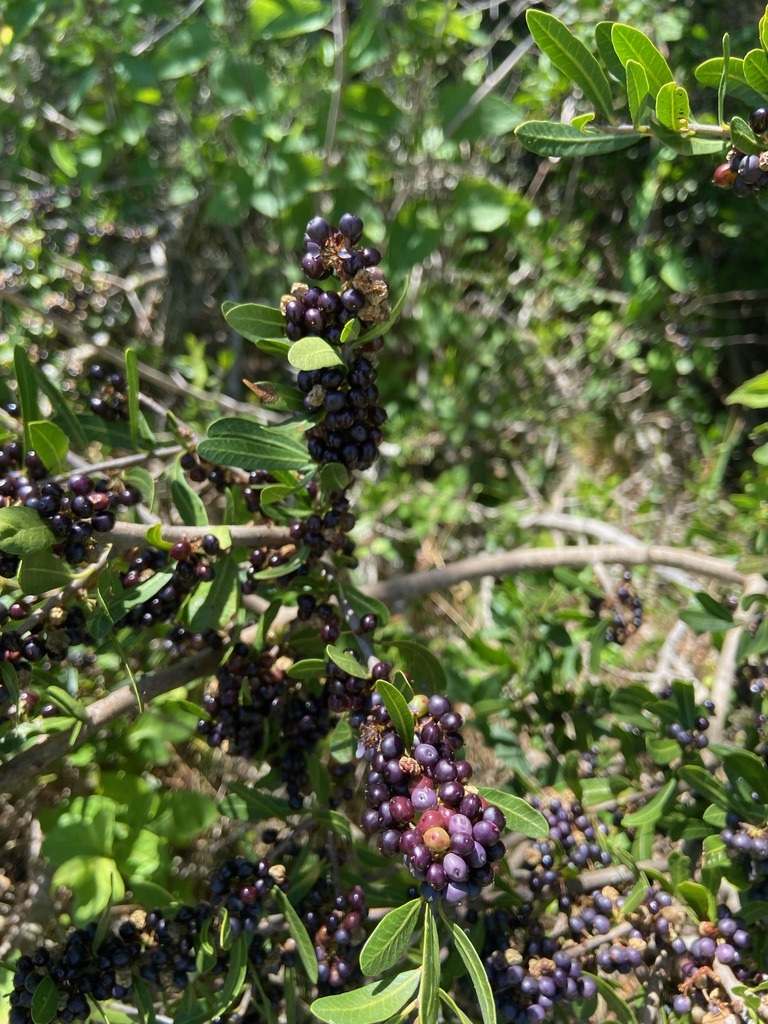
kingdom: Plantae
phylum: Tracheophyta
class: Magnoliopsida
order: Sapindales
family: Anacardiaceae
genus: Schinus
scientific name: Schinus longifolia
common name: Longleaf peppertree
